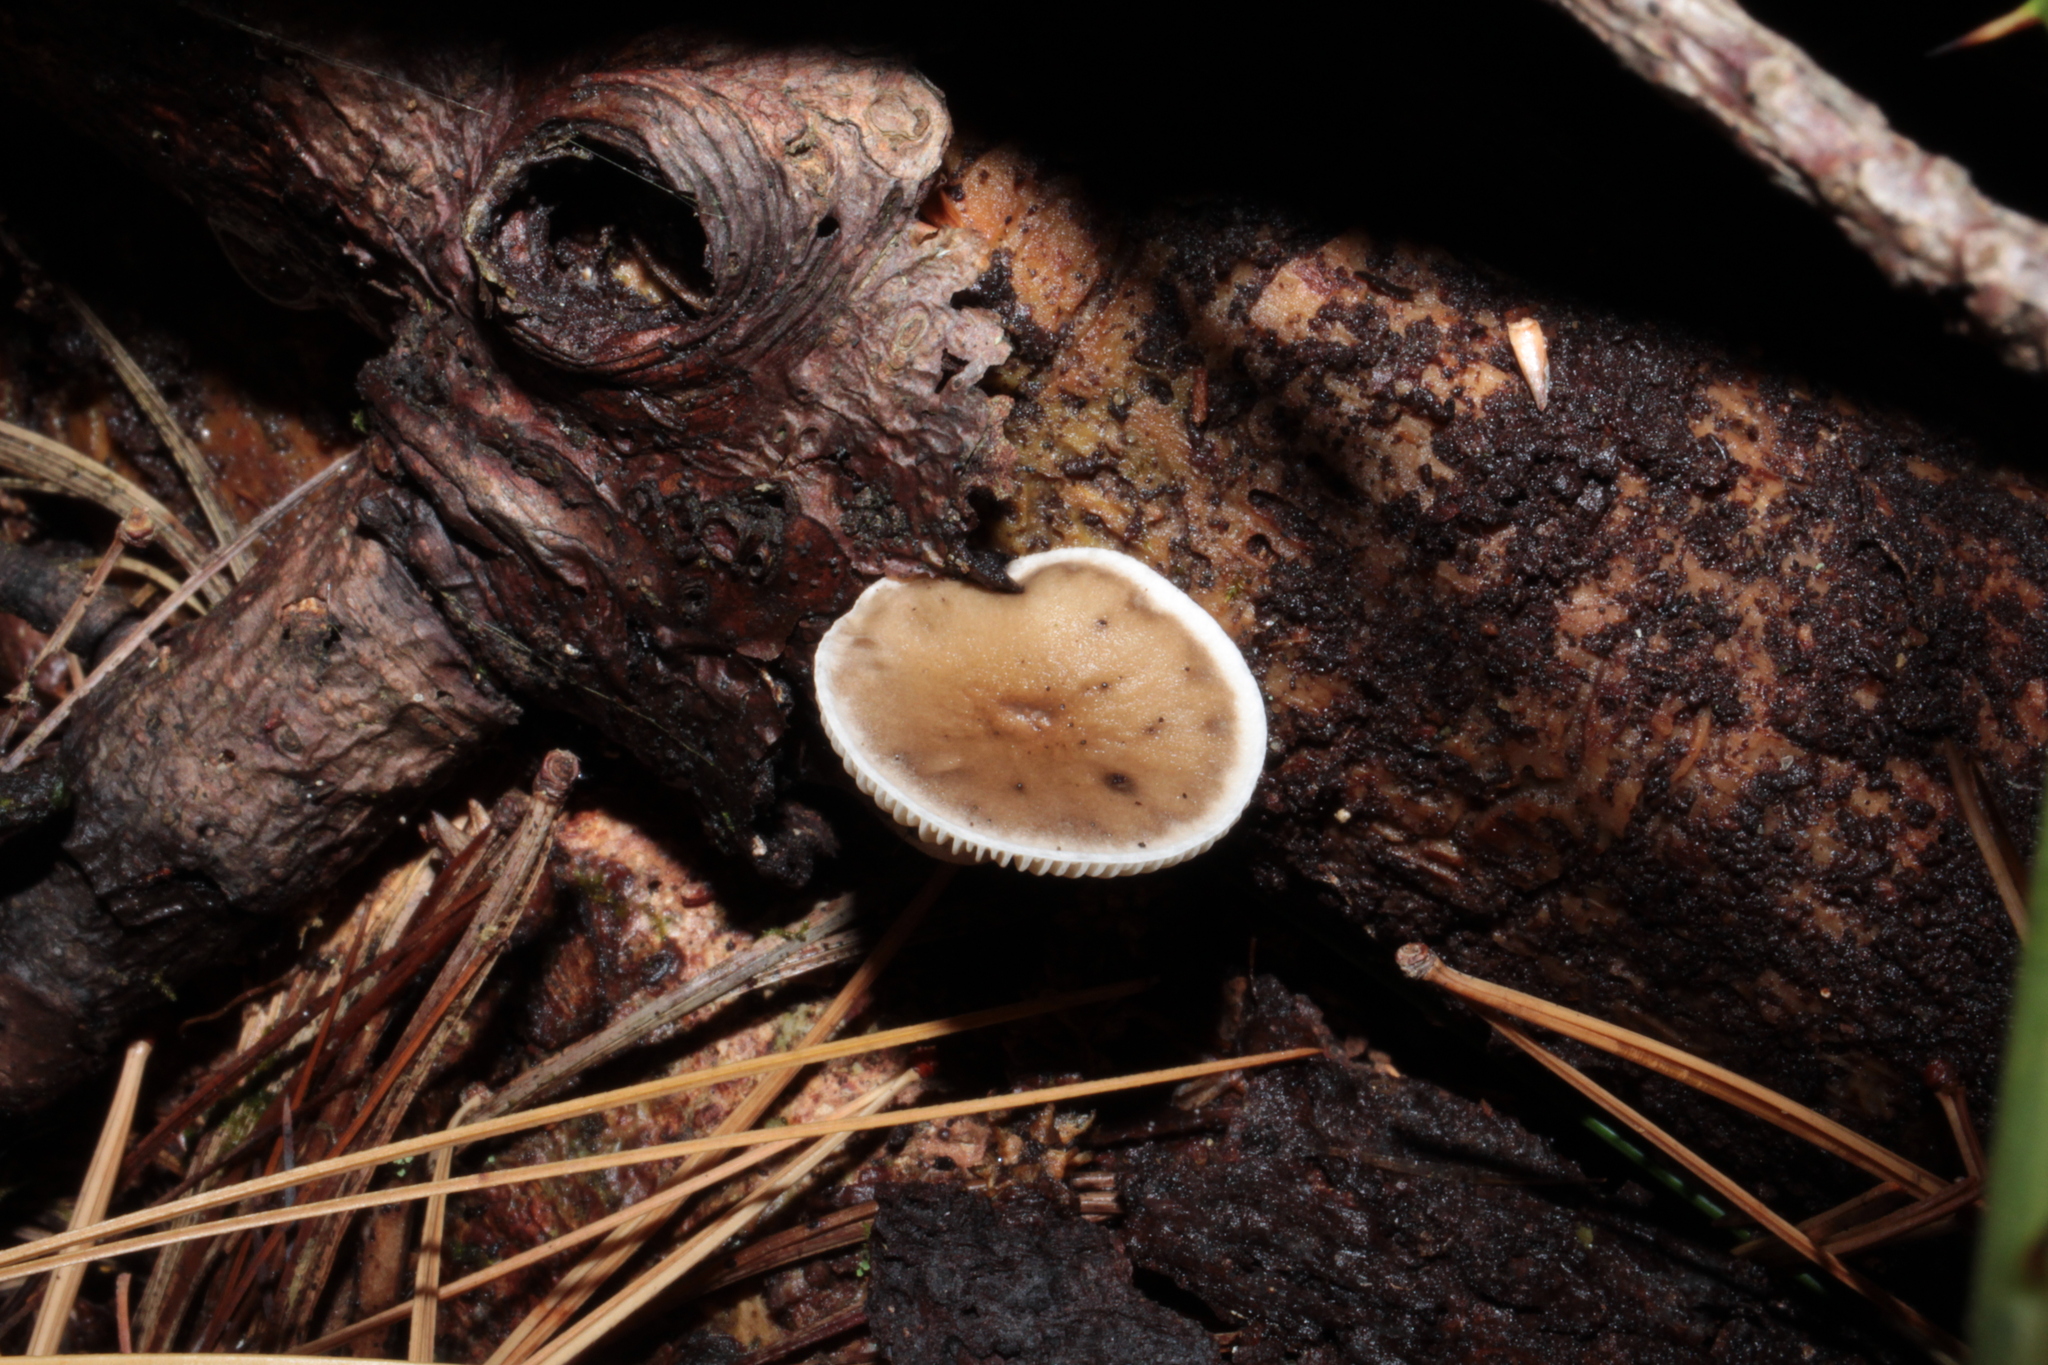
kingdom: Fungi
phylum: Basidiomycota
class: Agaricomycetes
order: Agaricales
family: Hygrophoraceae
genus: Ampulloclitocybe
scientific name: Ampulloclitocybe clavipes
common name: Club foot
